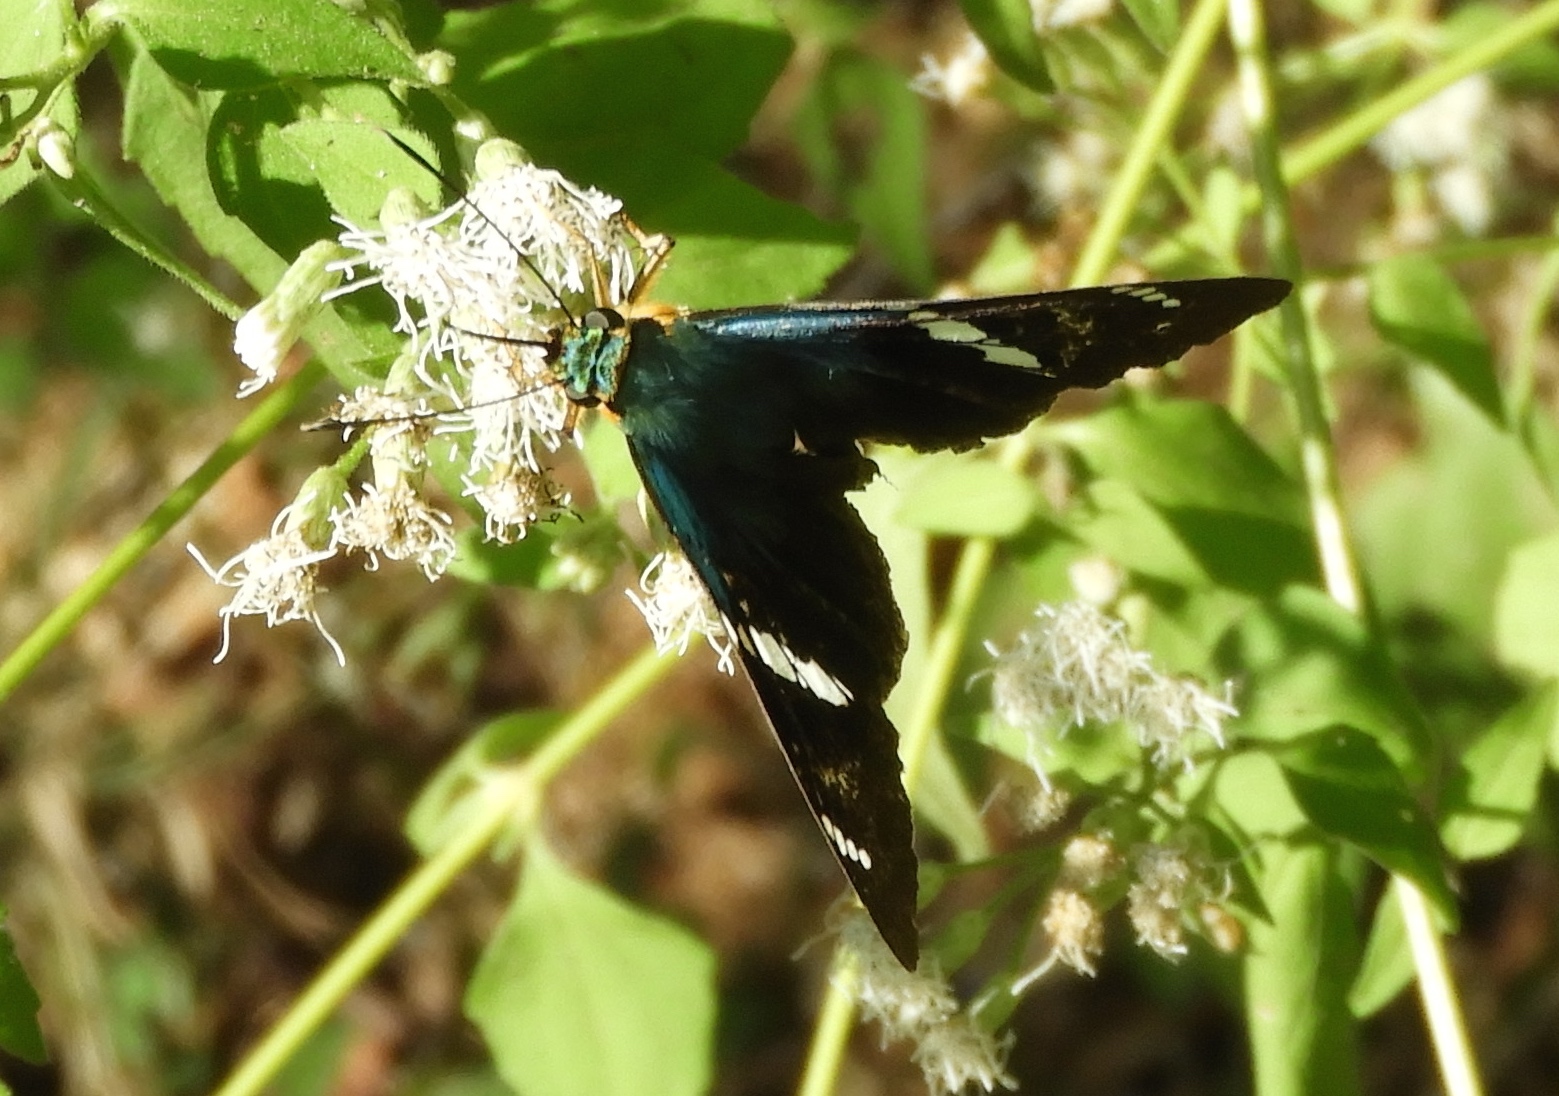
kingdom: Animalia
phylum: Arthropoda
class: Insecta
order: Lepidoptera
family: Hesperiidae
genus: Astraptes
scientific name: Astraptes fulgerator
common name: Two-barred flasher
